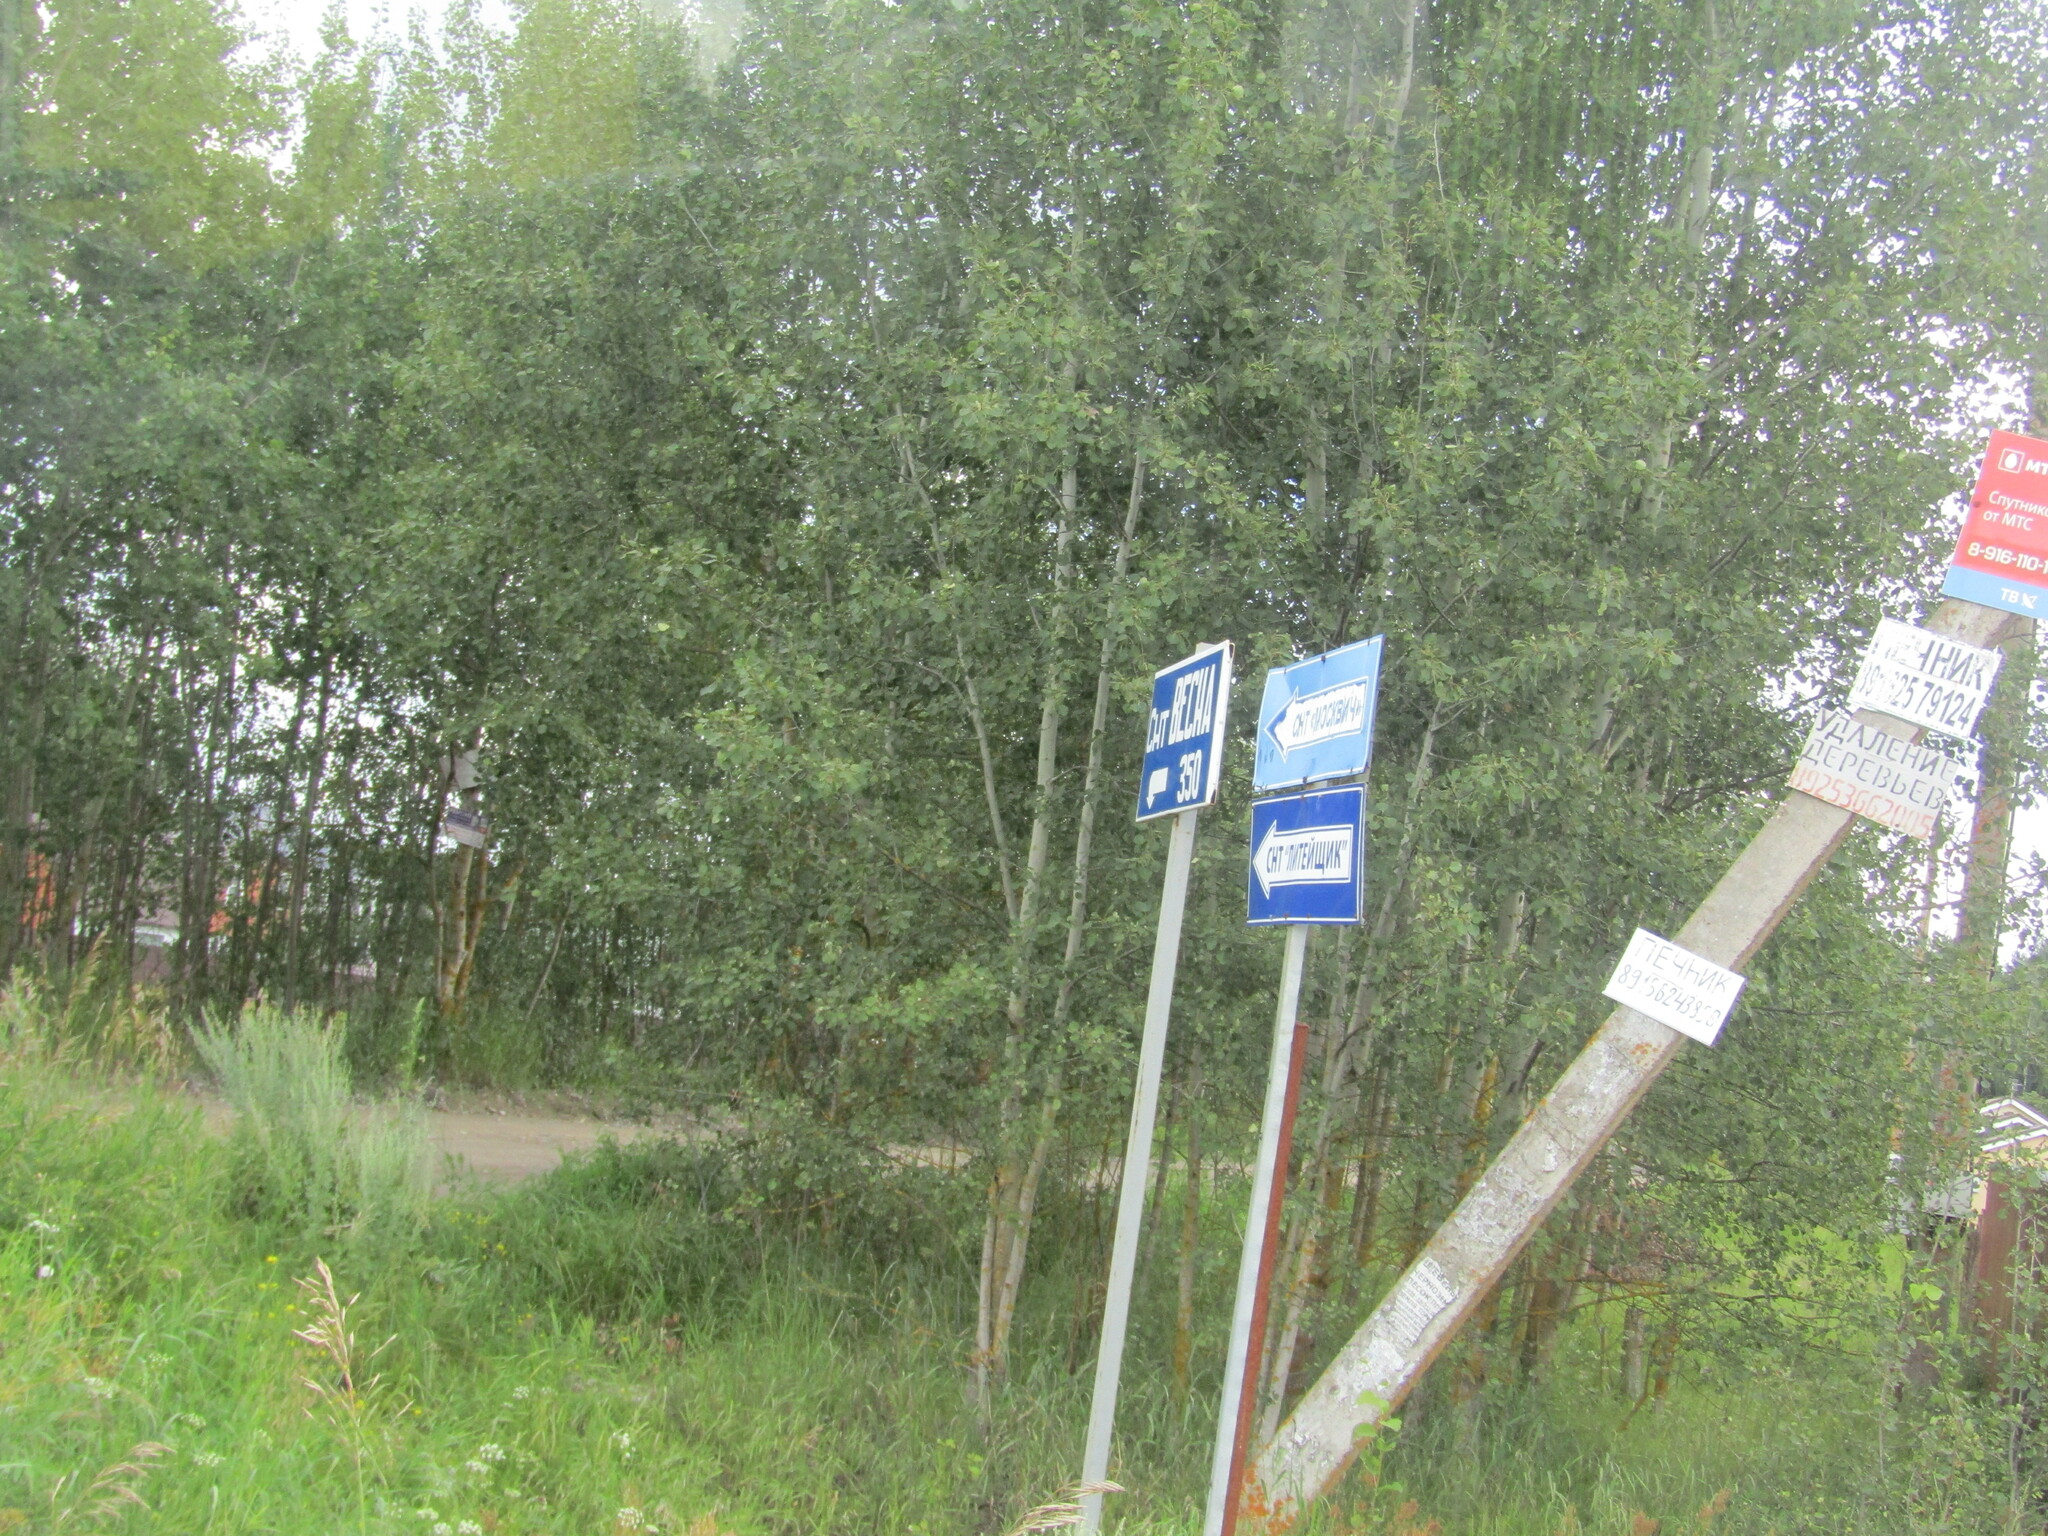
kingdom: Plantae
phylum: Tracheophyta
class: Magnoliopsida
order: Malpighiales
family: Salicaceae
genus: Populus
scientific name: Populus tremula
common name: European aspen
